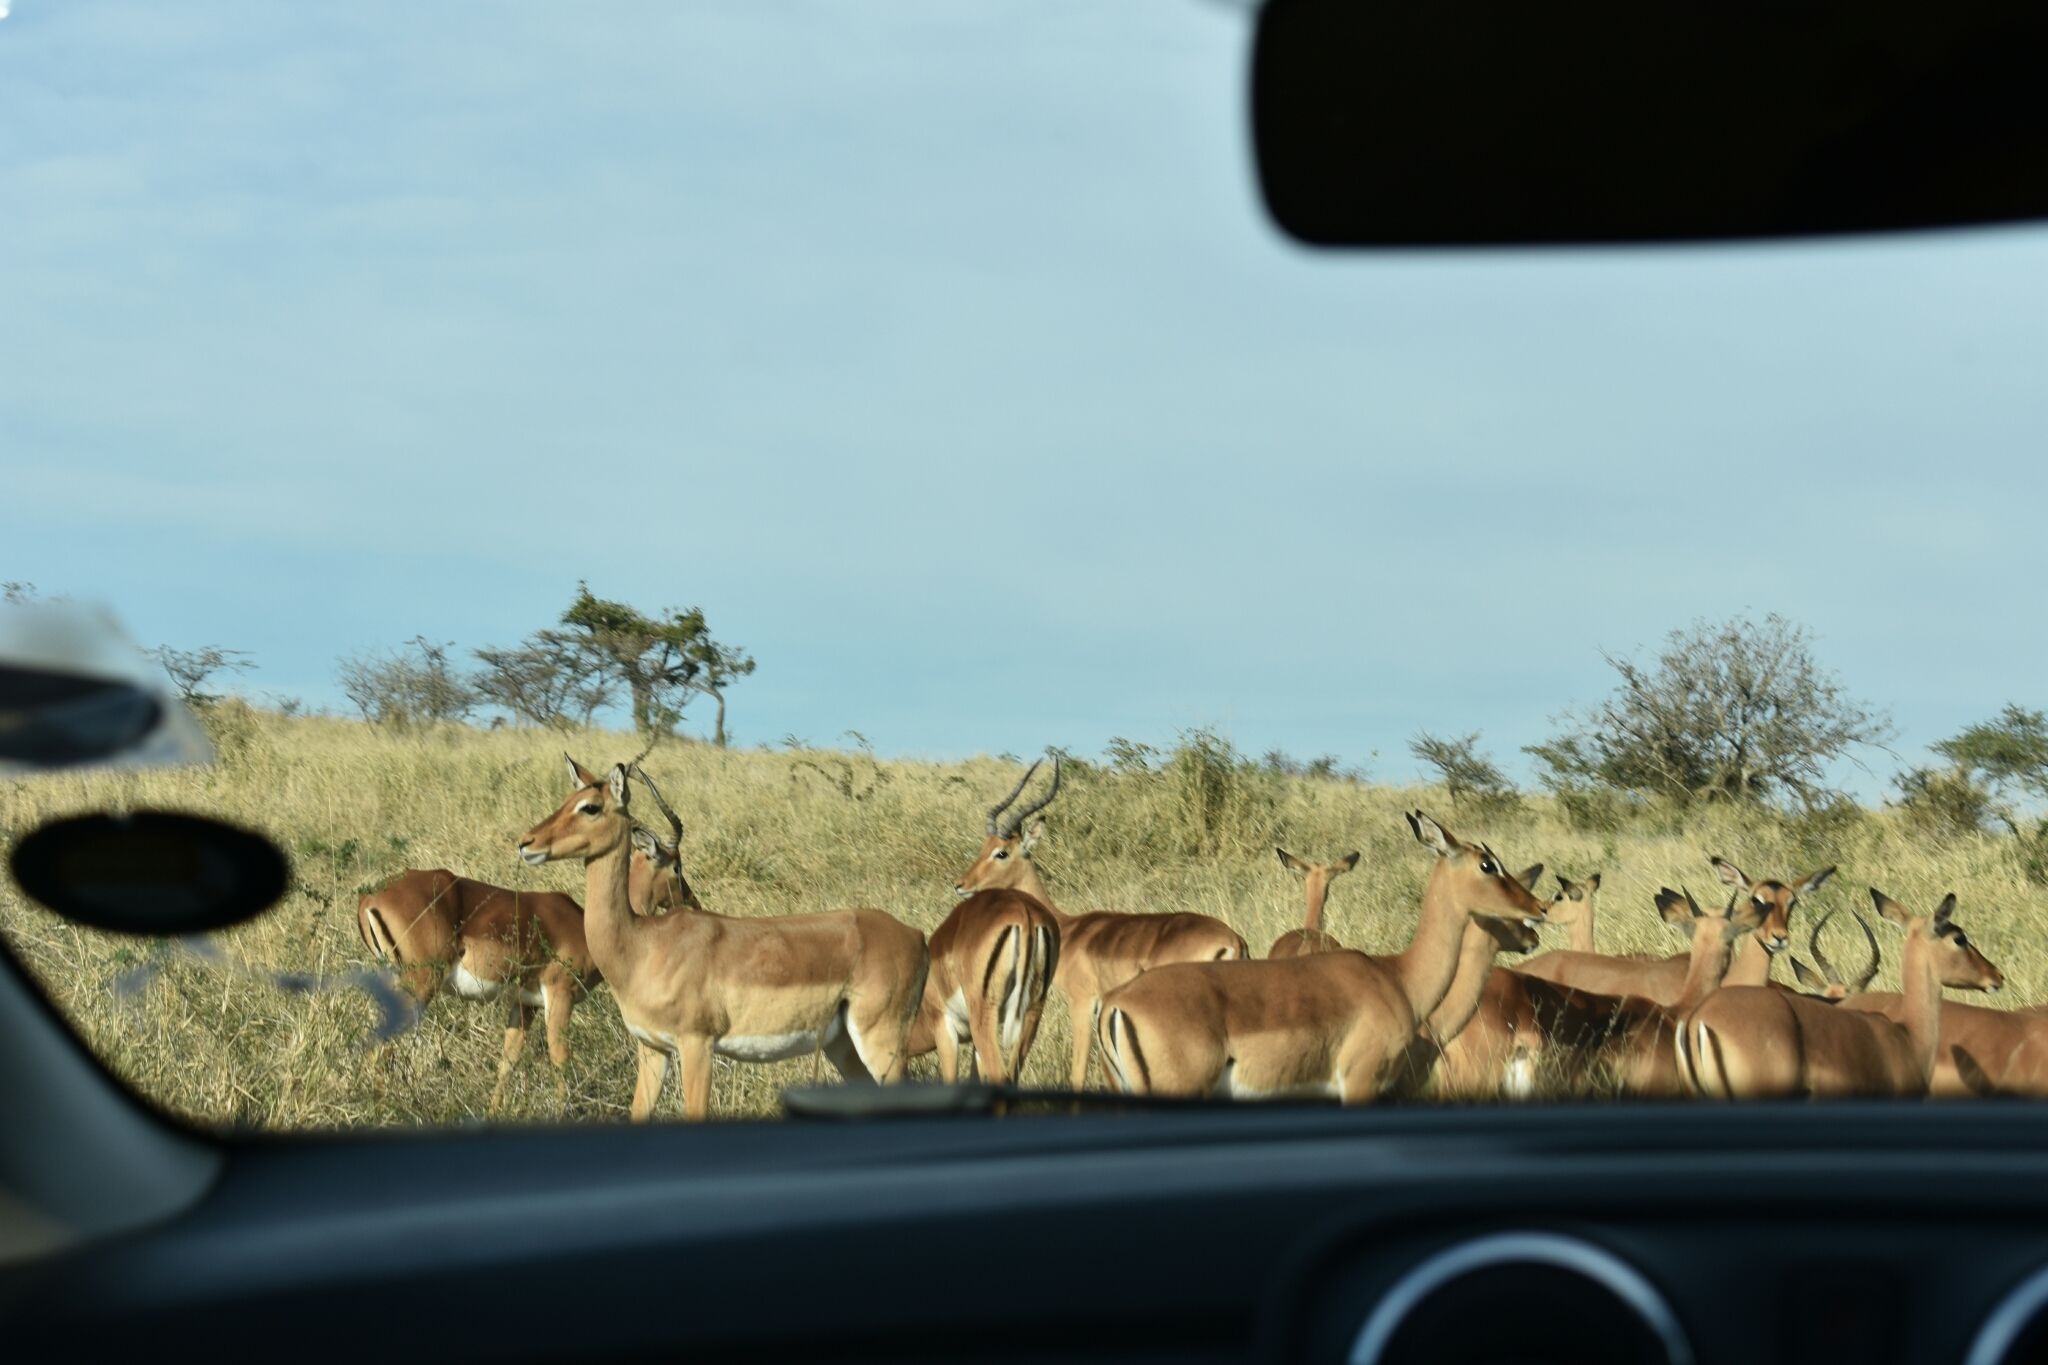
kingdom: Animalia
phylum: Chordata
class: Mammalia
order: Artiodactyla
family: Bovidae
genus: Aepyceros
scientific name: Aepyceros melampus
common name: Impala
